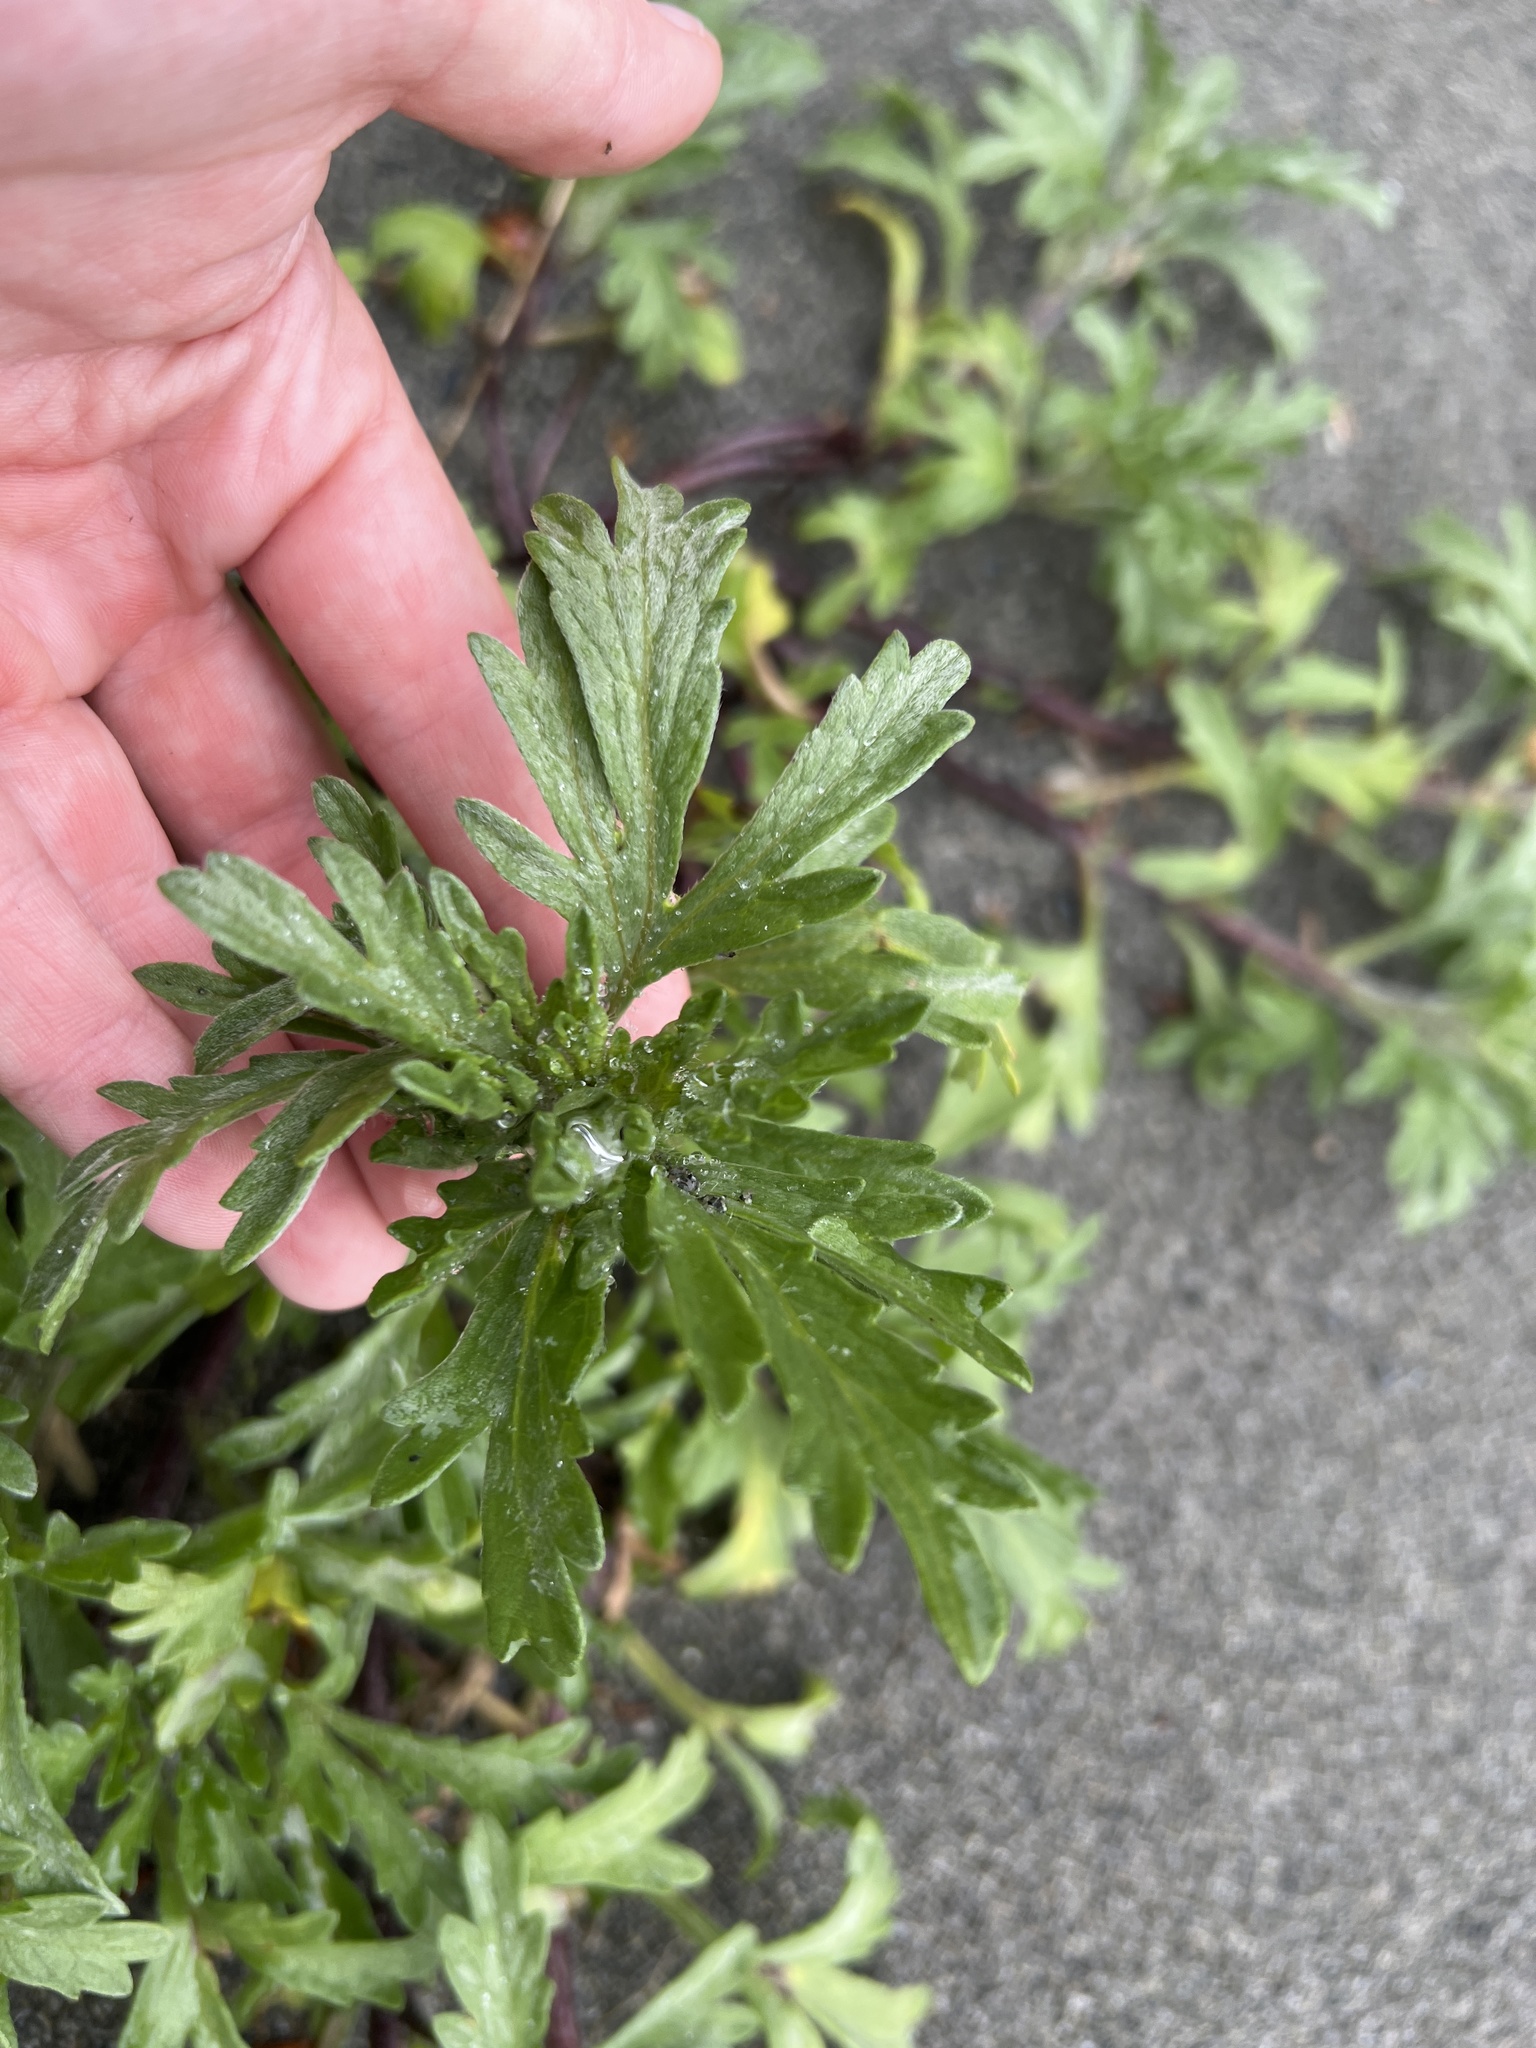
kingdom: Plantae
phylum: Tracheophyta
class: Magnoliopsida
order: Asterales
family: Asteraceae
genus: Ambrosia
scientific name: Ambrosia chamissonis
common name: Beachbur
